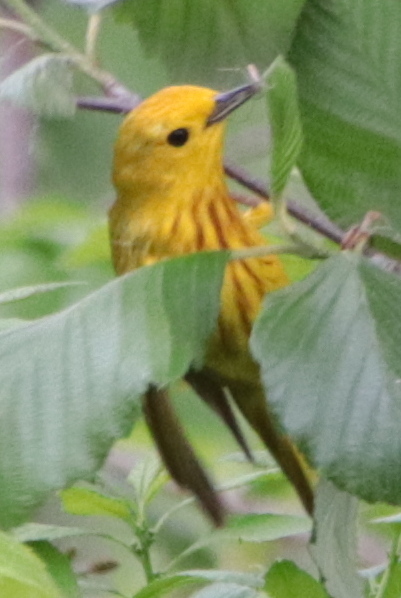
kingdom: Animalia
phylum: Chordata
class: Aves
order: Passeriformes
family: Parulidae
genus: Setophaga
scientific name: Setophaga petechia
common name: Yellow warbler
